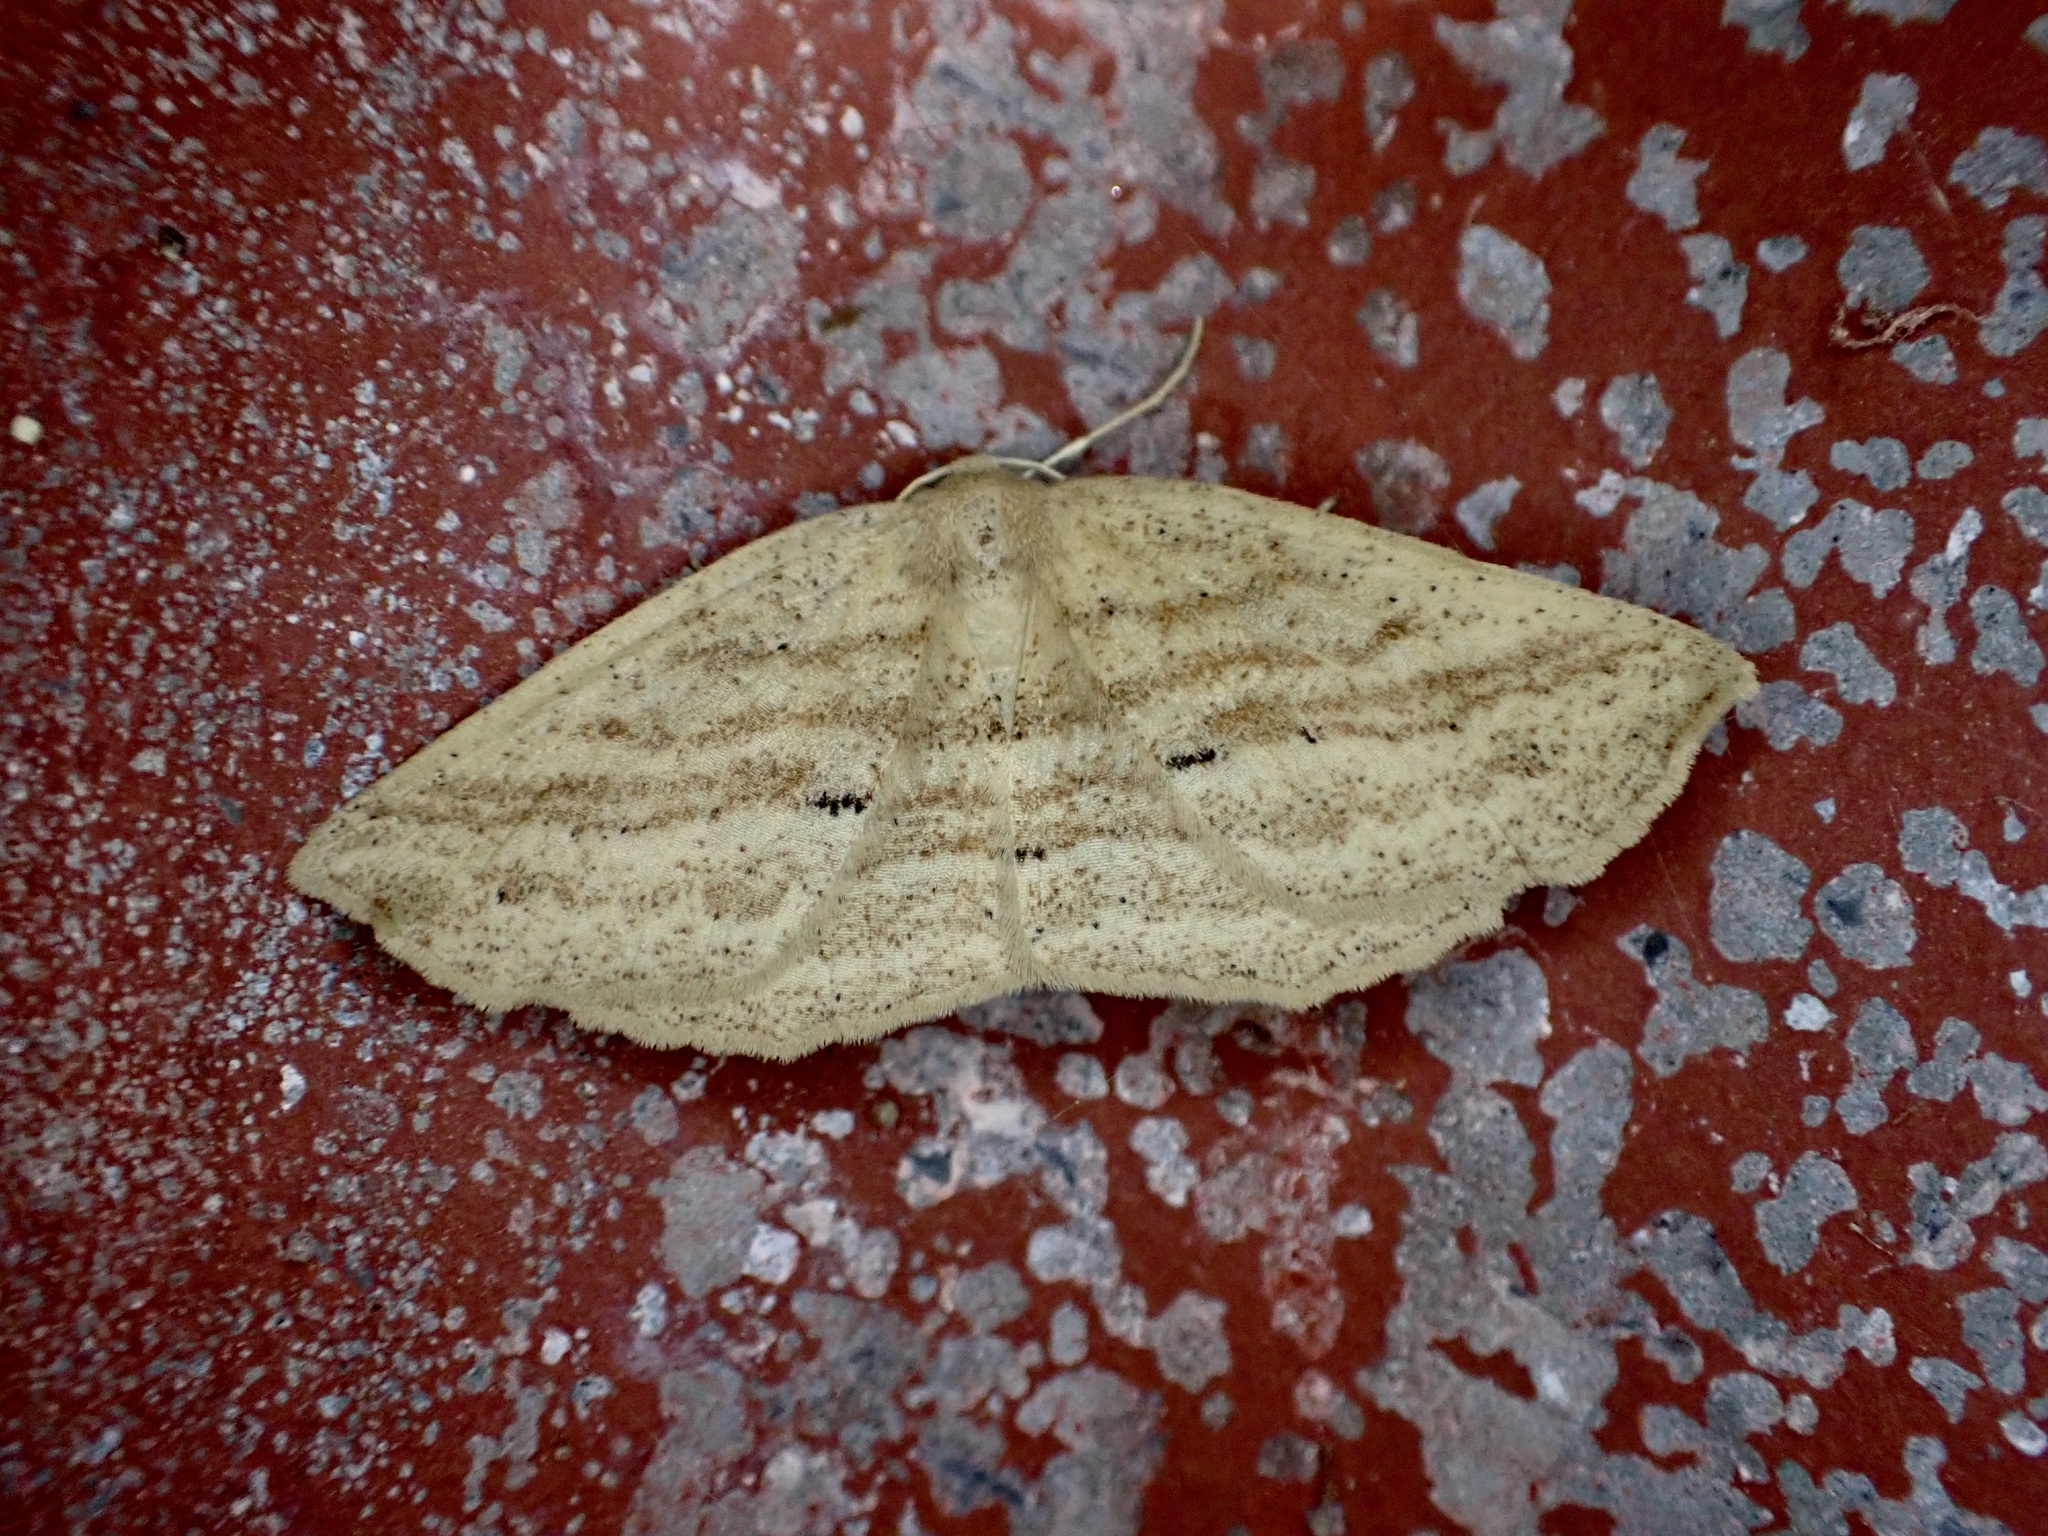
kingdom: Animalia
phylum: Arthropoda
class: Insecta
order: Lepidoptera
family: Geometridae
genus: Xyridacma
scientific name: Xyridacma veronicae
